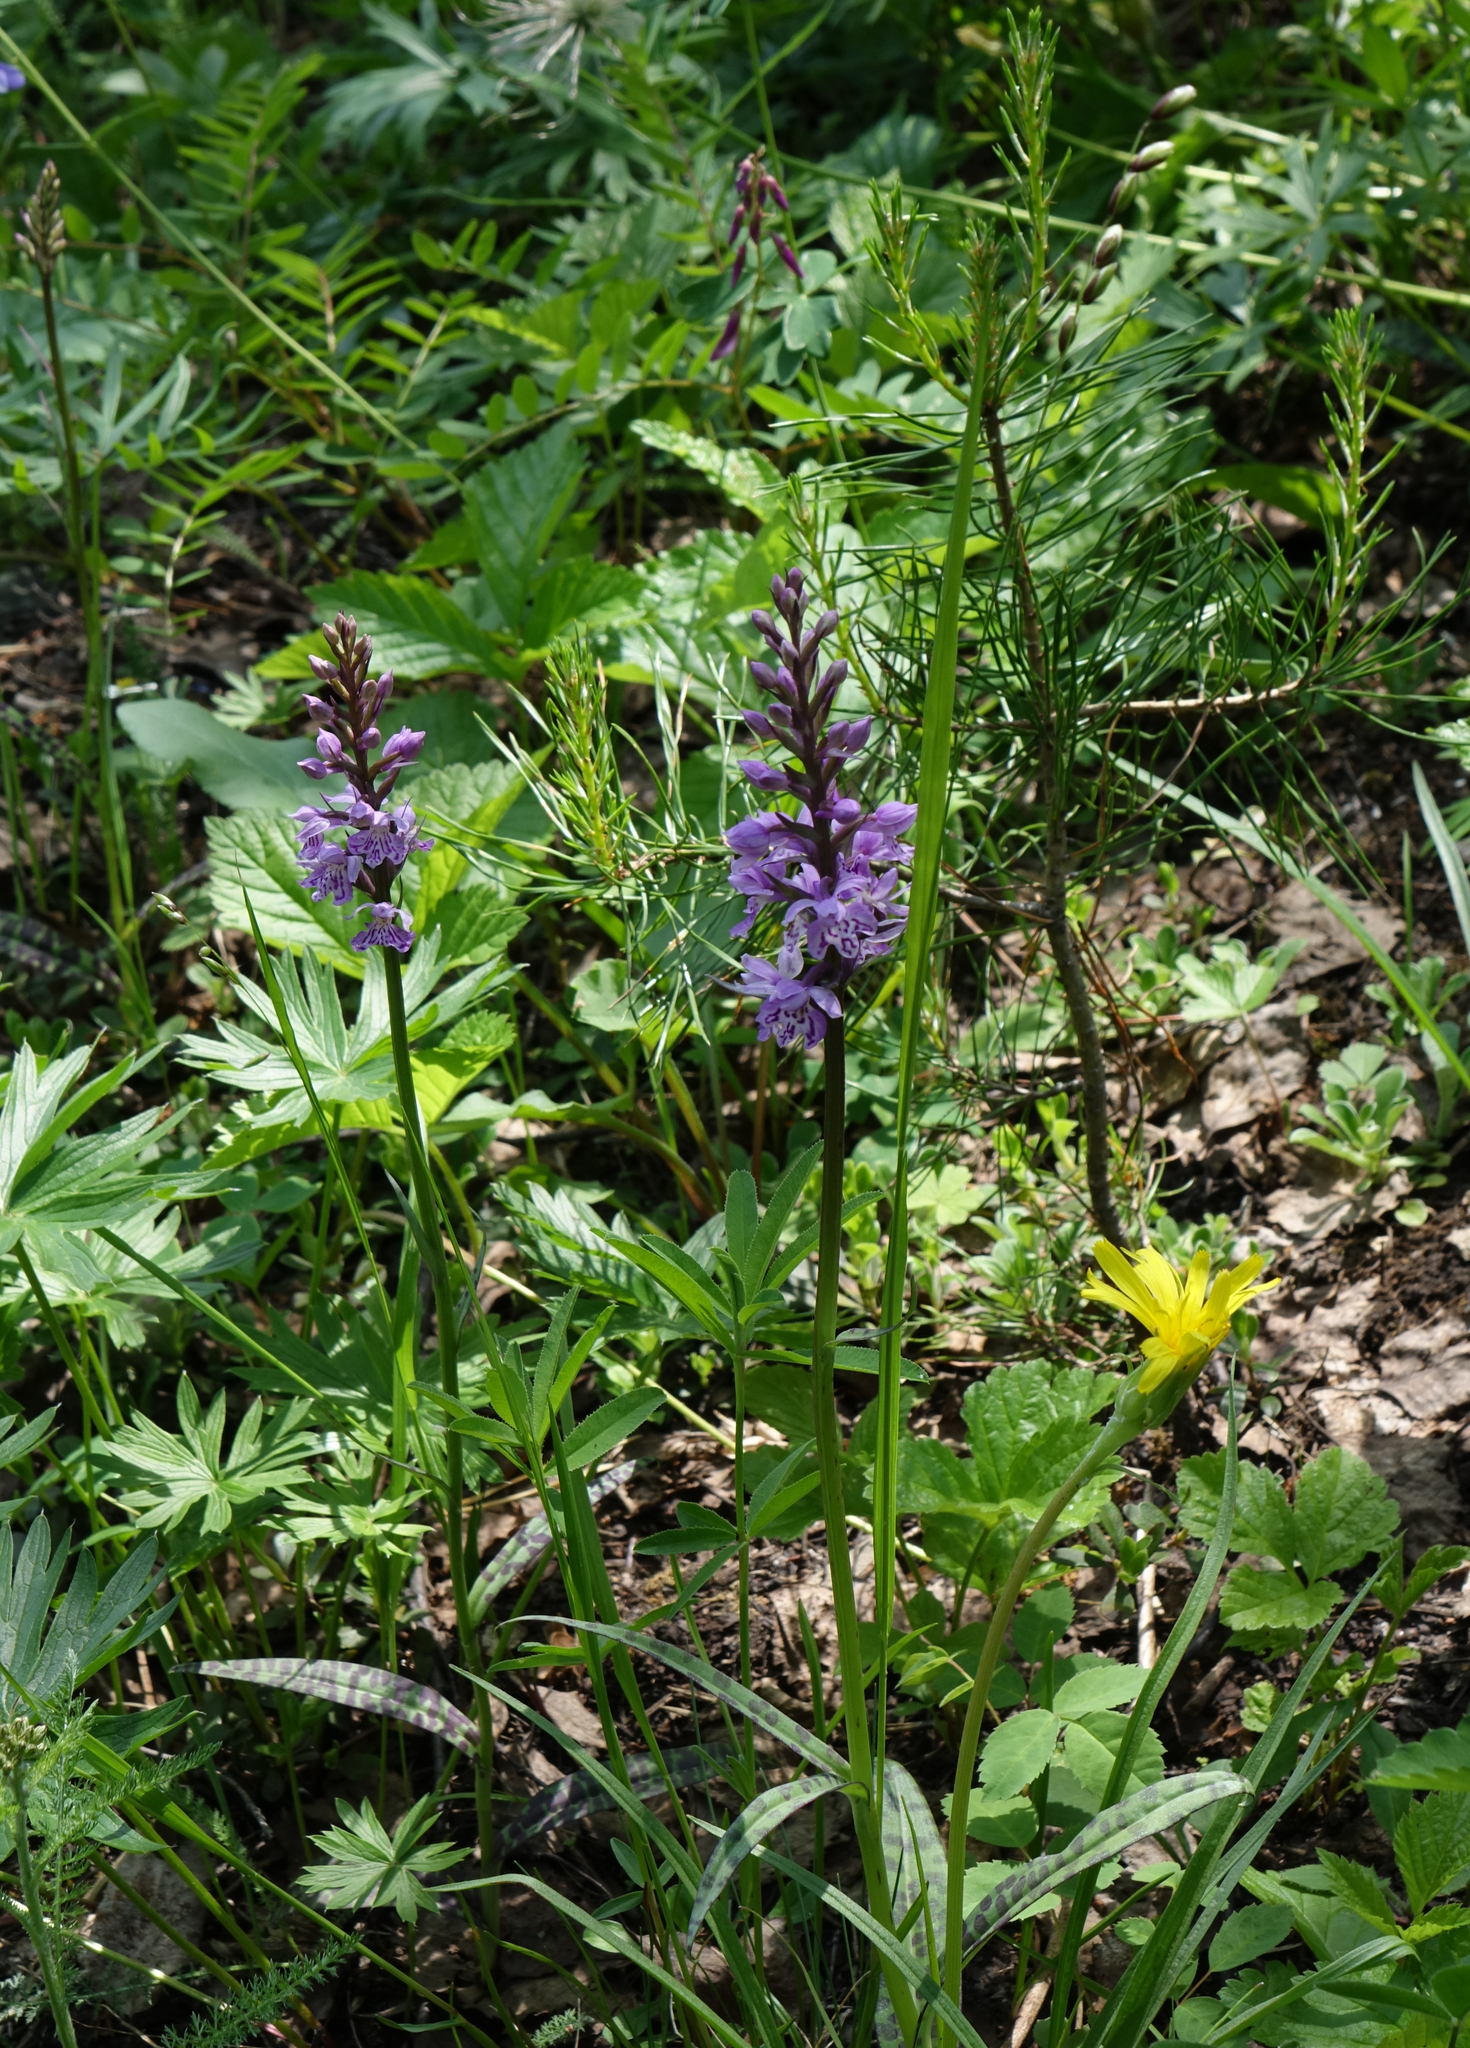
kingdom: Plantae
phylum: Tracheophyta
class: Liliopsida
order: Asparagales
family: Orchidaceae
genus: Dactylorhiza
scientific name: Dactylorhiza maculata
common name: Heath spotted-orchid
